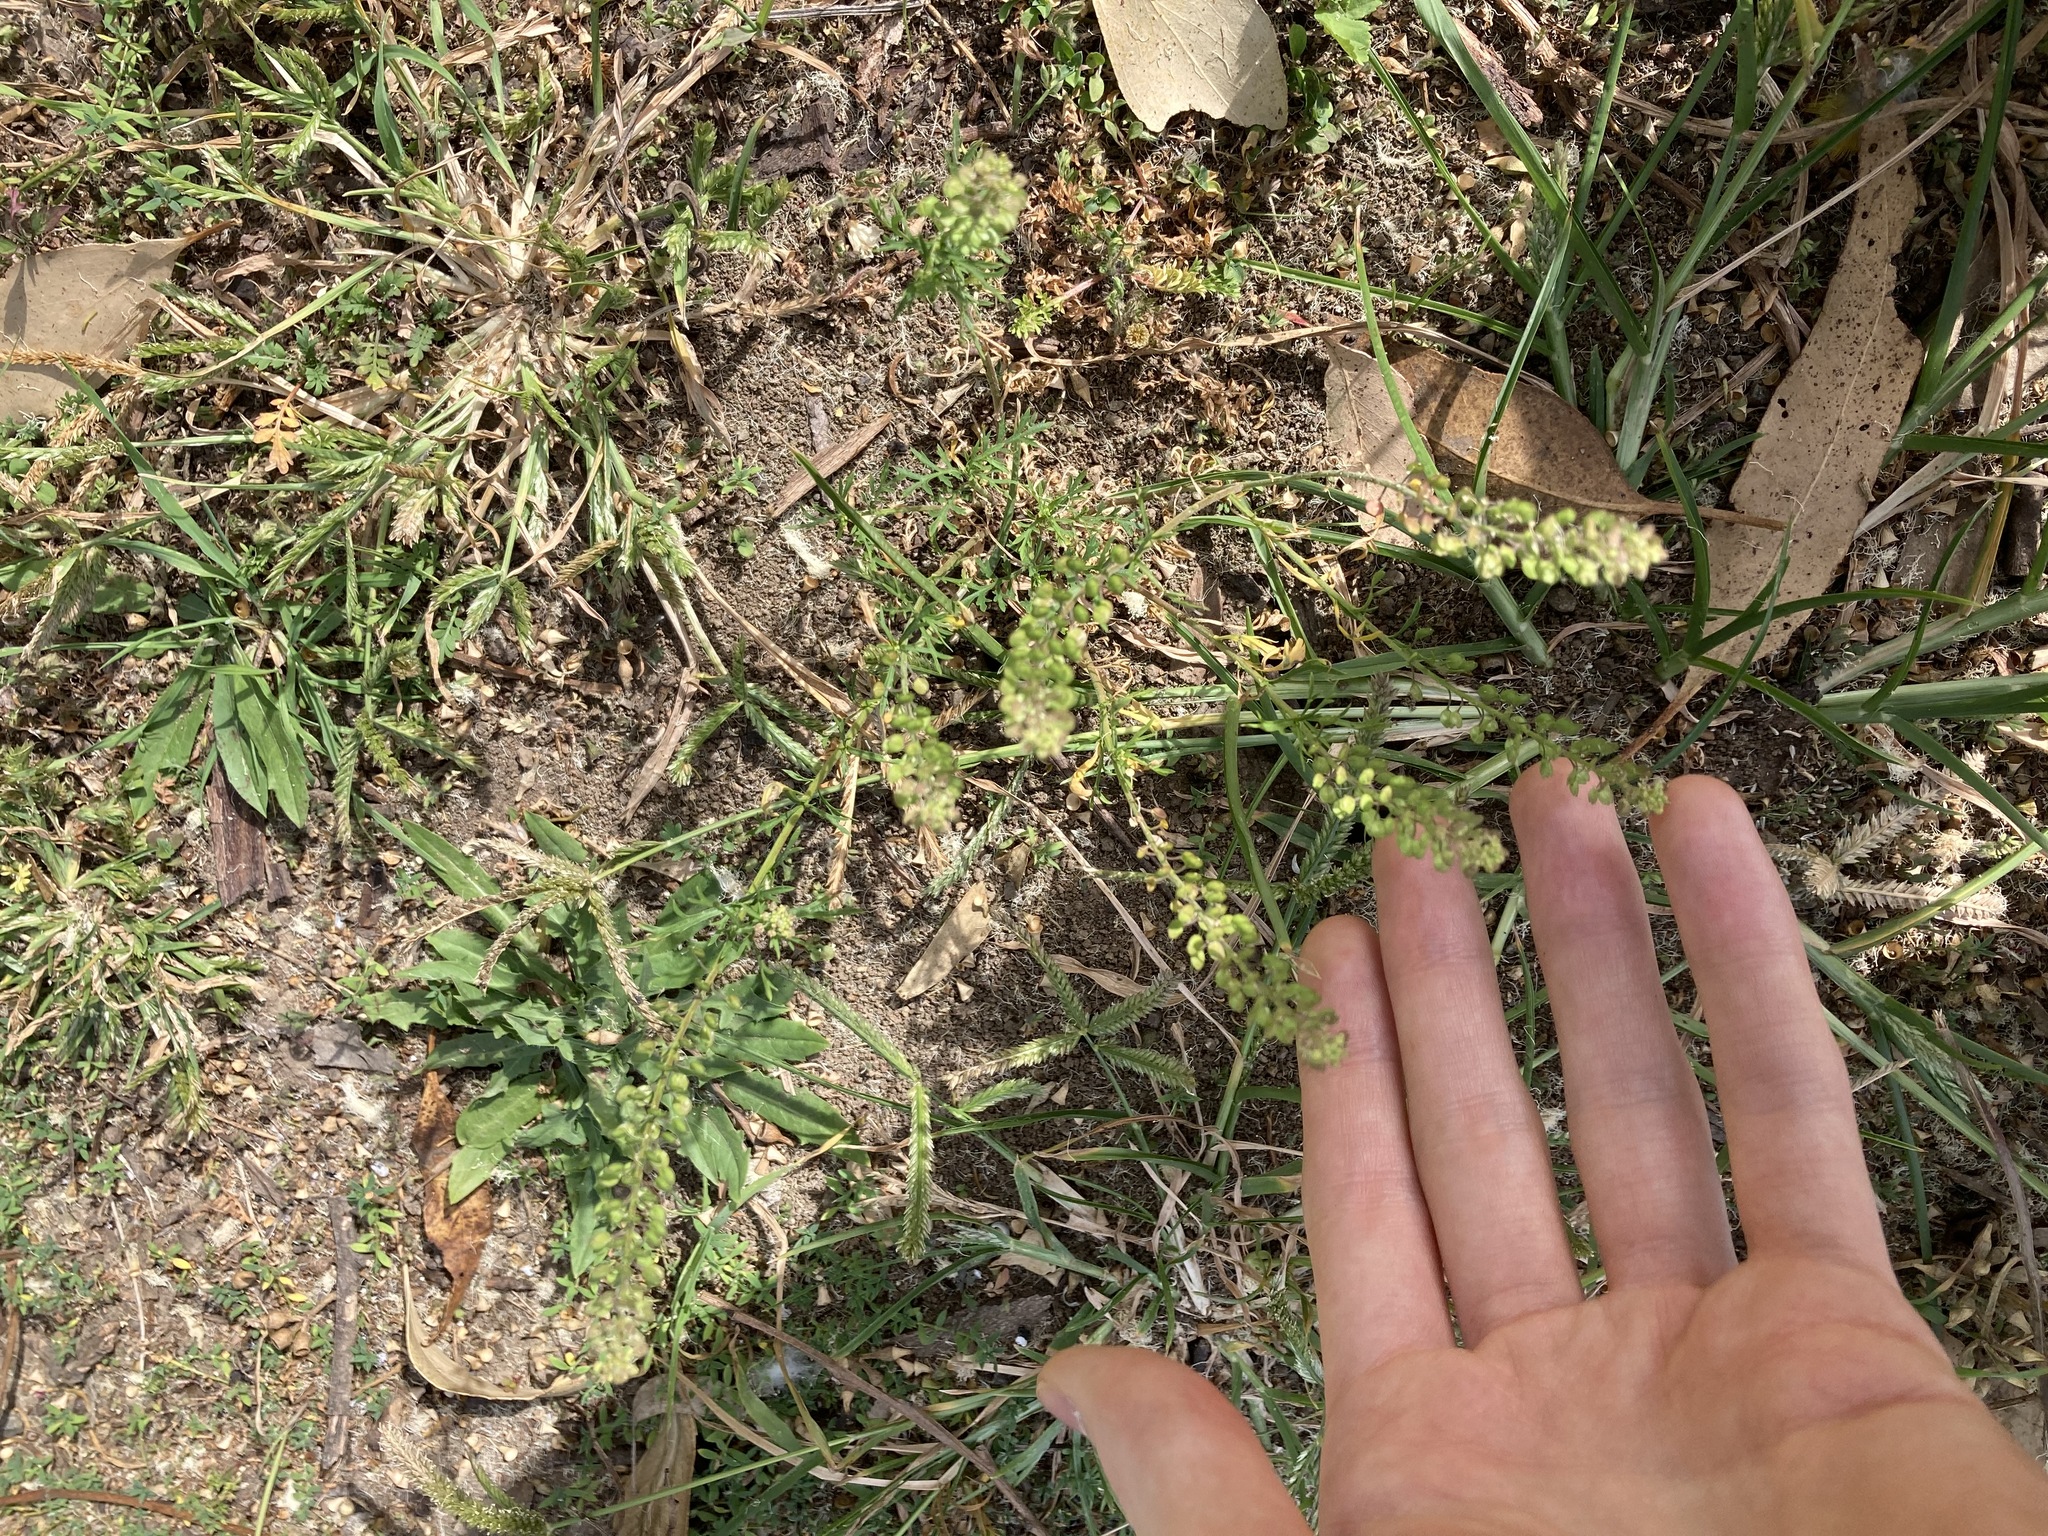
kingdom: Plantae
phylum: Tracheophyta
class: Magnoliopsida
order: Brassicales
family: Brassicaceae
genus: Lepidium
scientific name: Lepidium bonariense
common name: Argentine pepperwort
